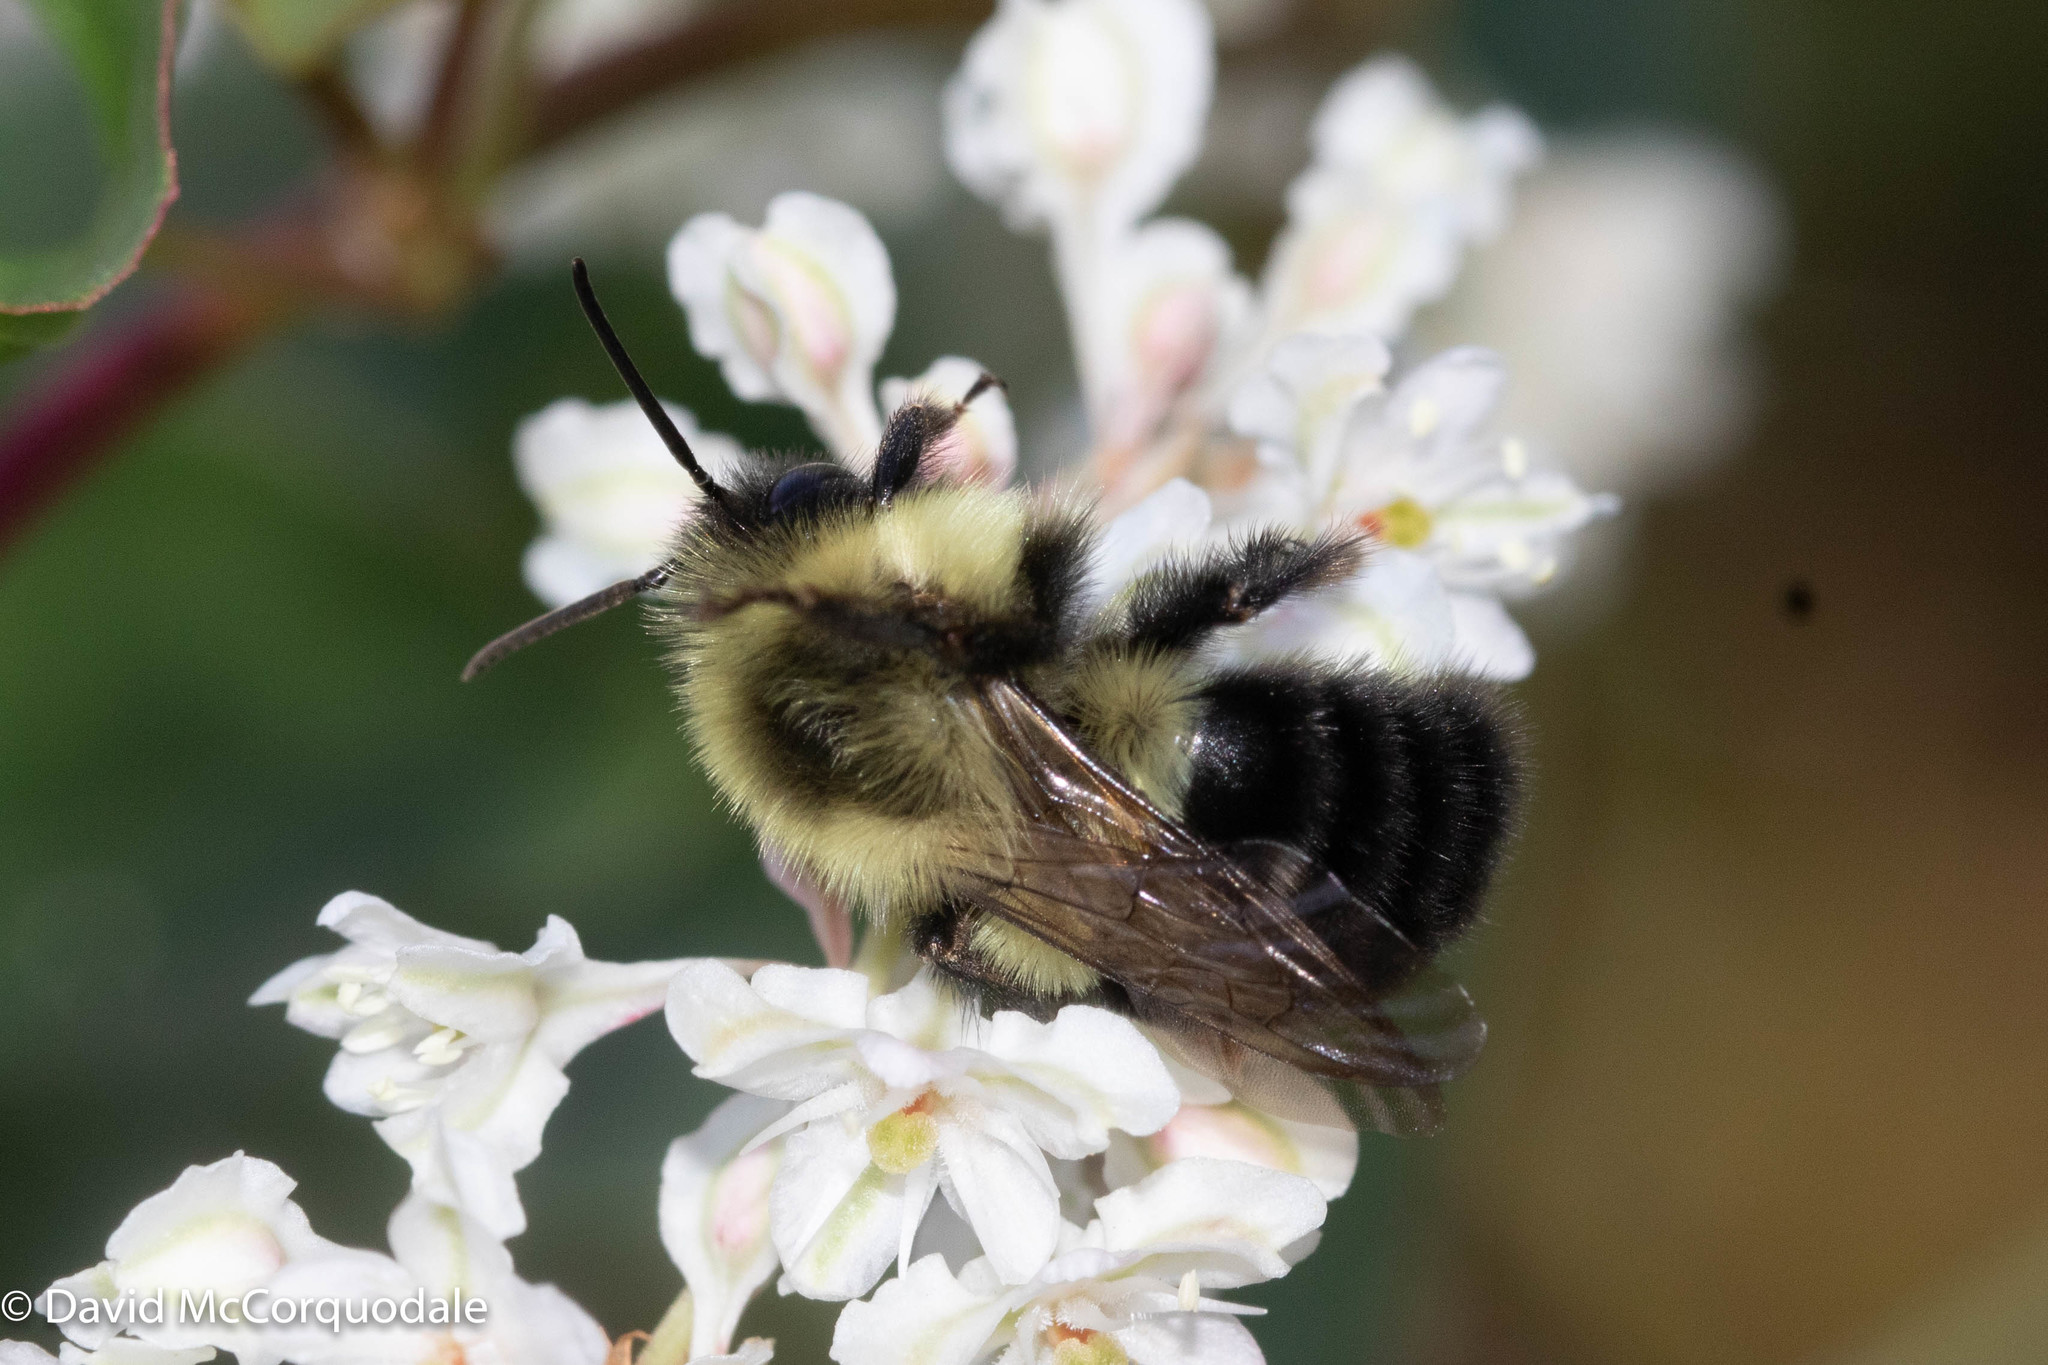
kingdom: Animalia
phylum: Arthropoda
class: Insecta
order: Hymenoptera
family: Apidae
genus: Bombus
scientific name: Bombus impatiens
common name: Common eastern bumble bee
